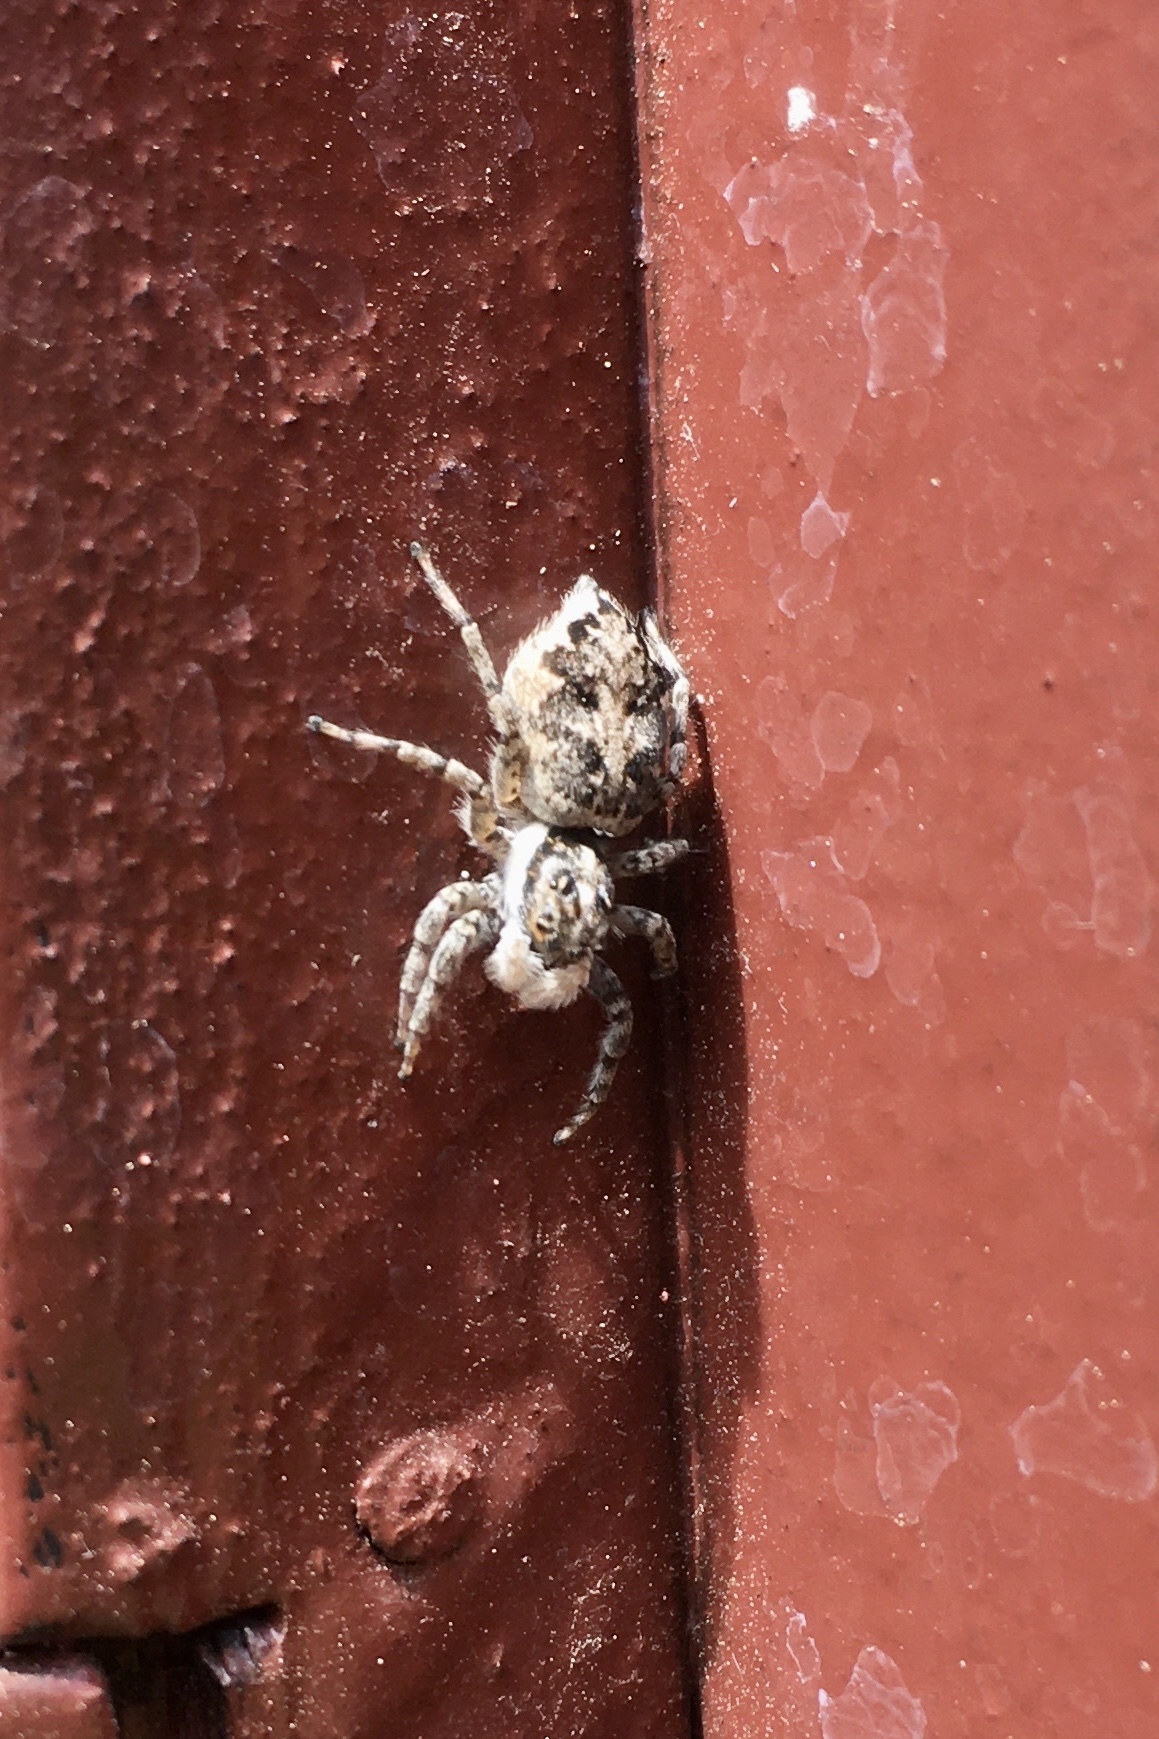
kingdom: Animalia
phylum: Arthropoda
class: Arachnida
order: Araneae
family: Salticidae
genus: Menemerus
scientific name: Menemerus semilimbatus
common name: Jumping spider
